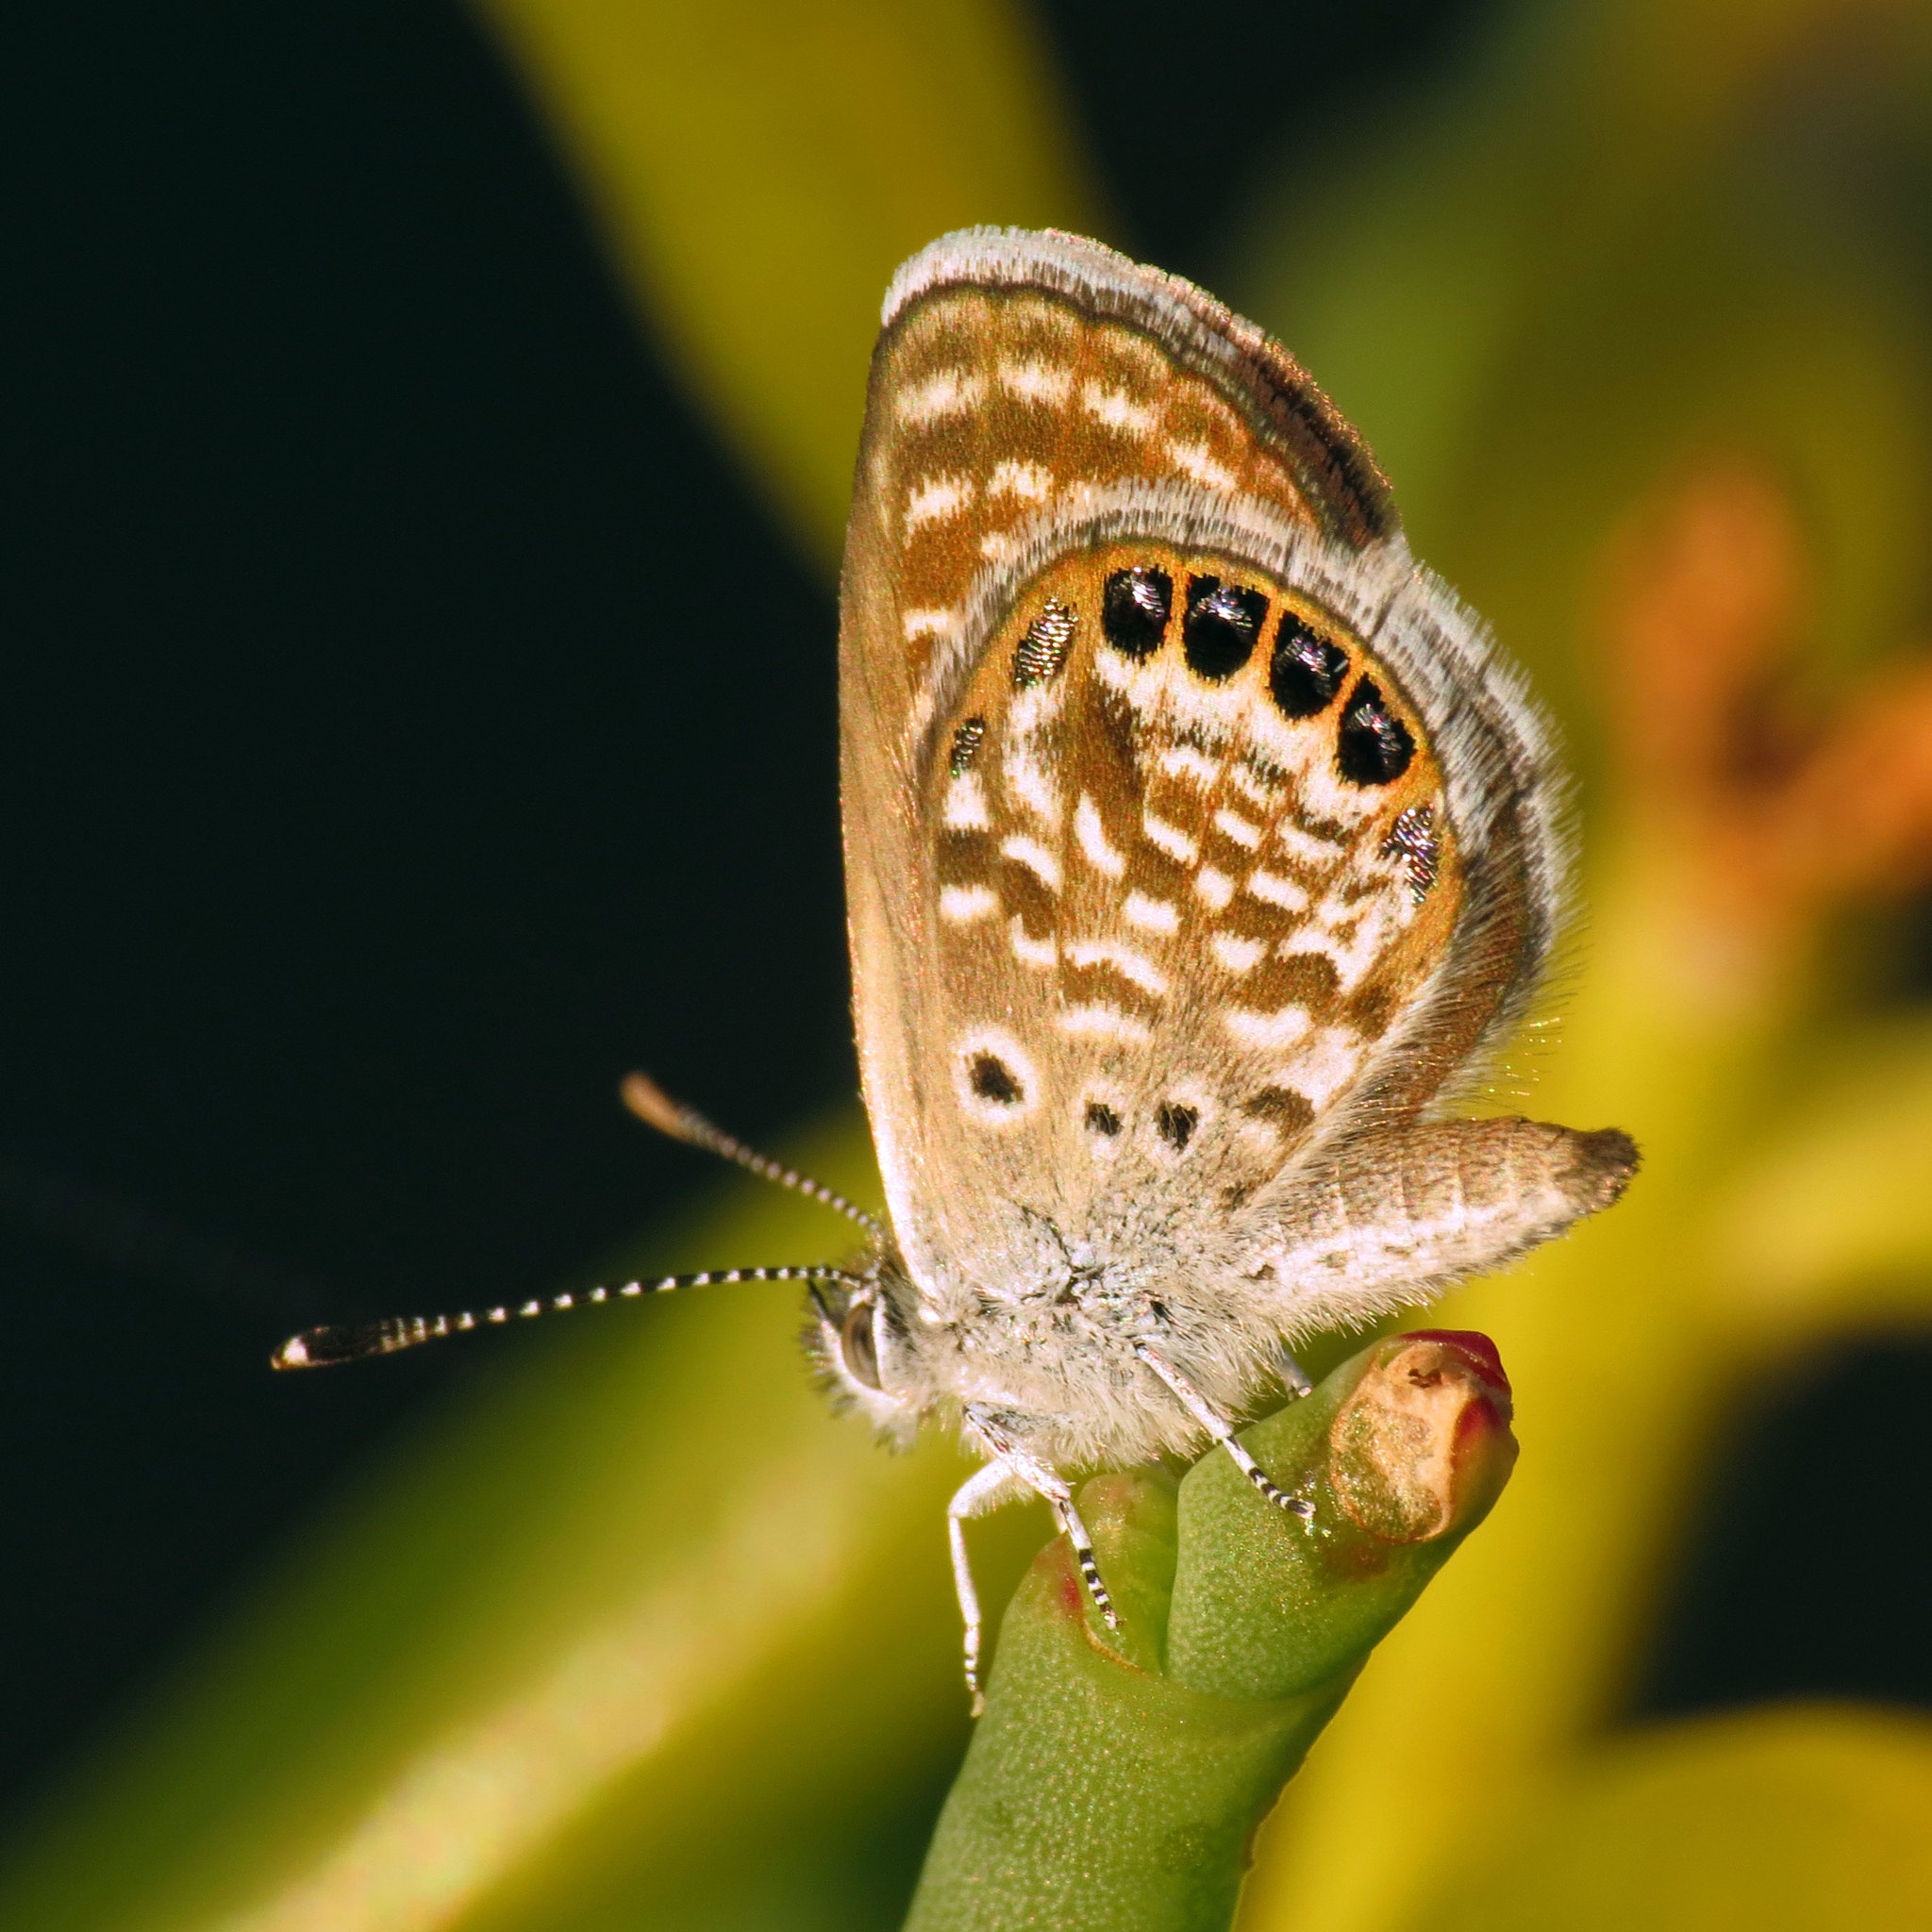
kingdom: Animalia
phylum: Arthropoda
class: Insecta
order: Lepidoptera
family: Lycaenidae
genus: Brephidium
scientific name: Brephidium exilis
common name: Pygmy blue
